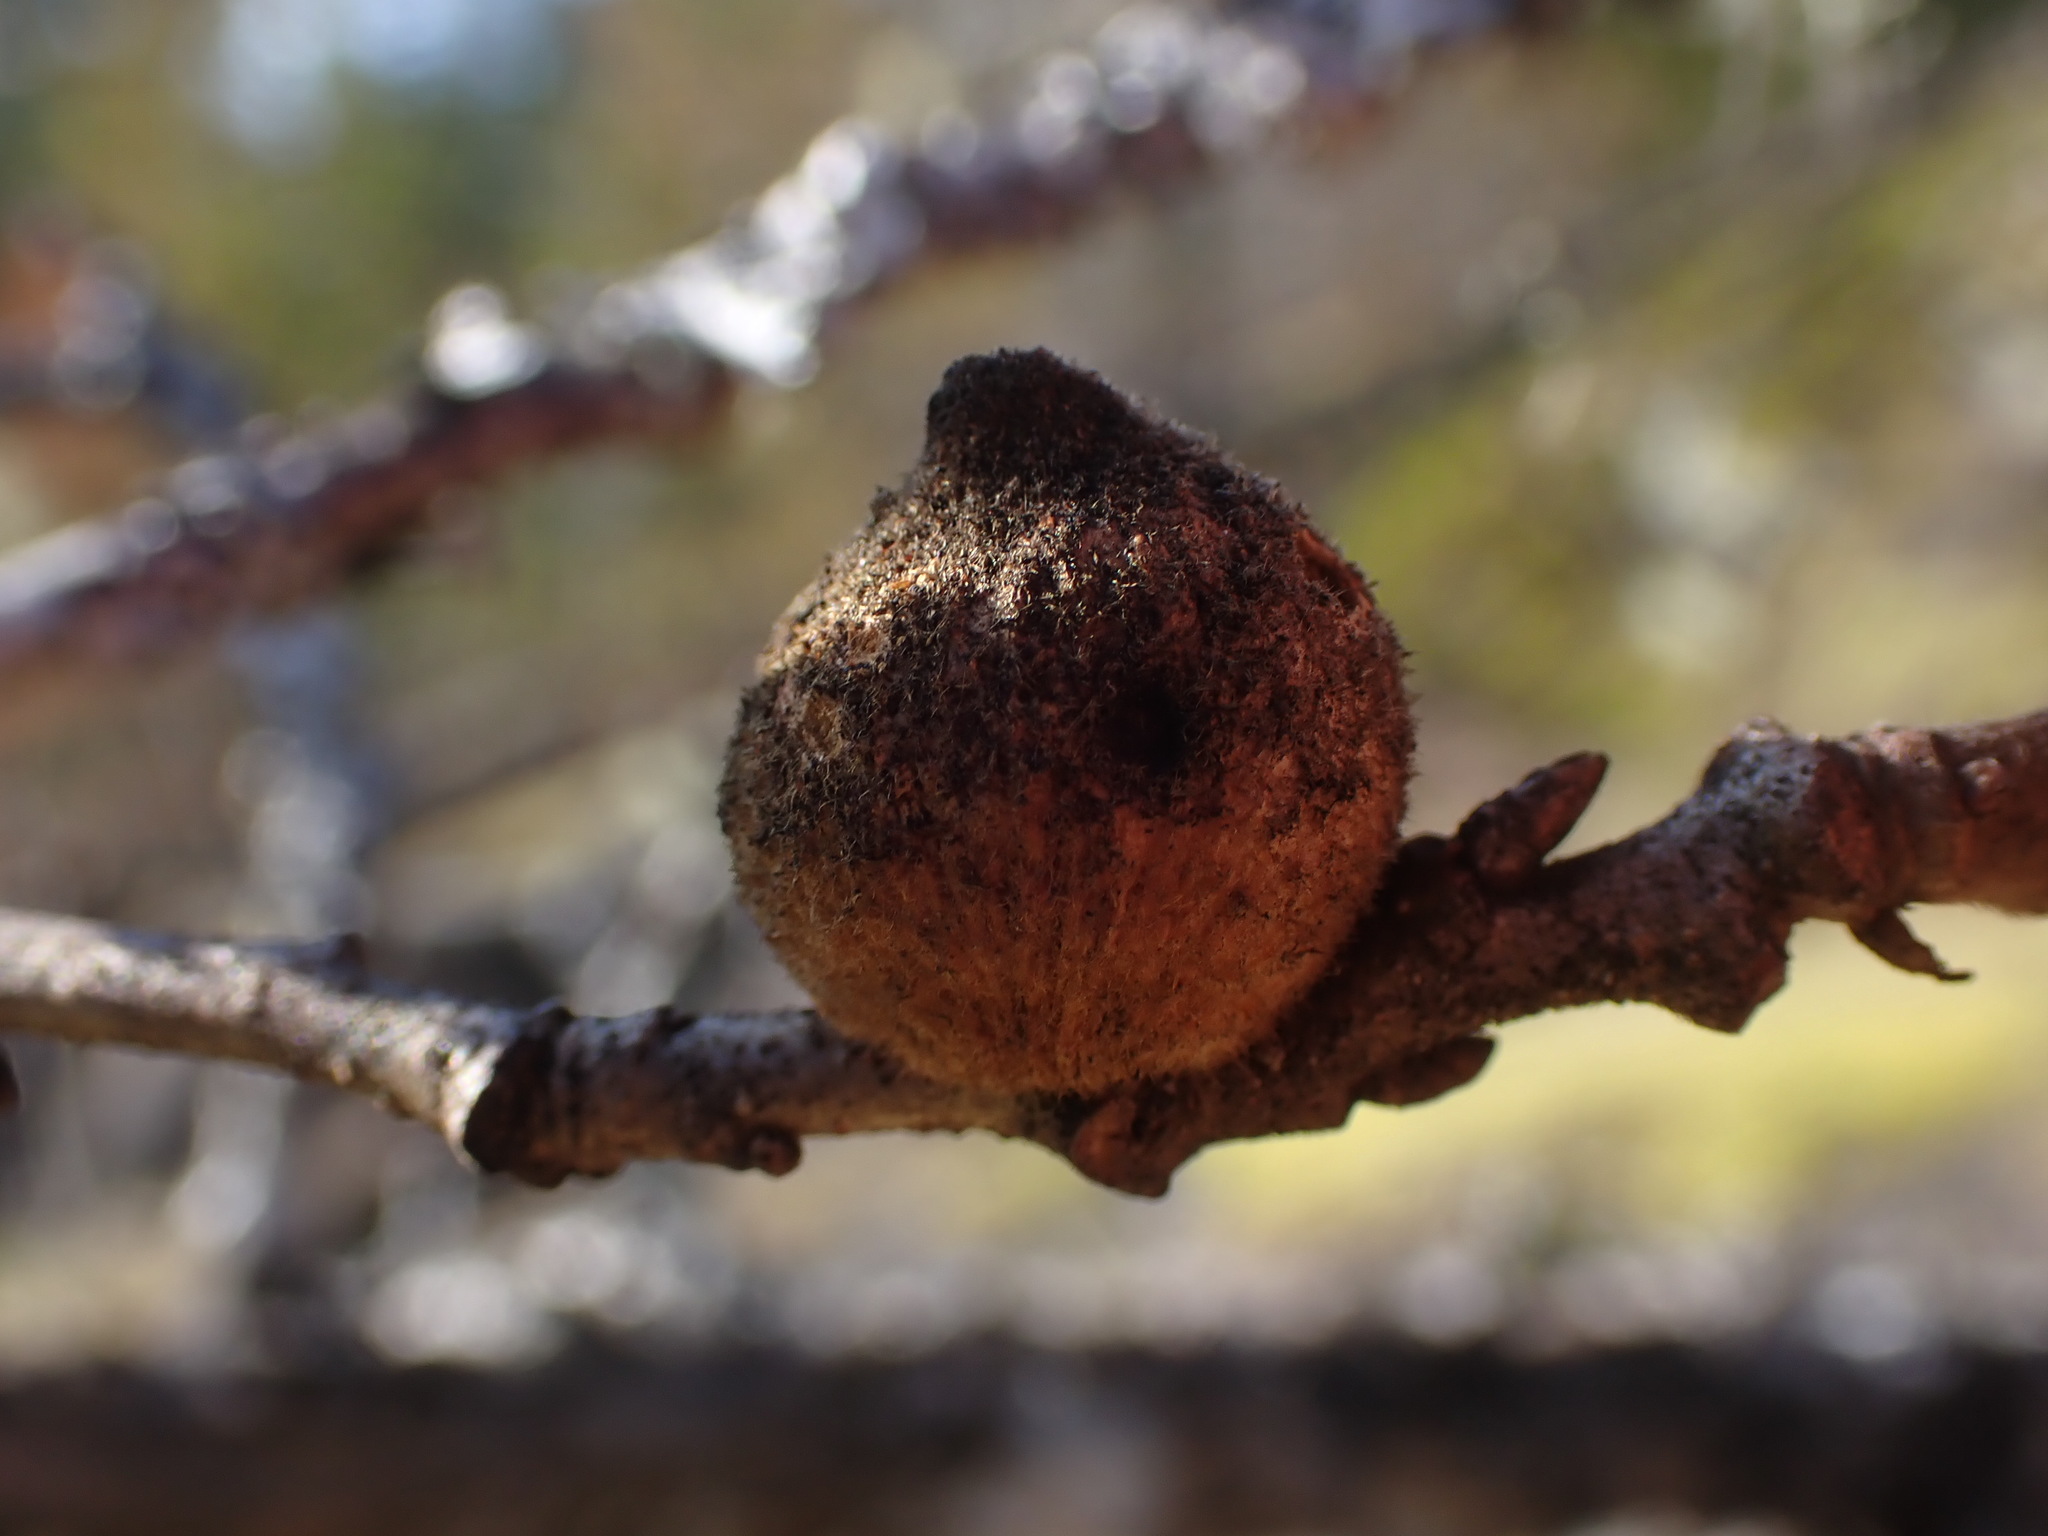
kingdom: Animalia
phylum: Arthropoda
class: Insecta
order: Hymenoptera
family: Cynipidae
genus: Disholcaspis
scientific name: Disholcaspis
